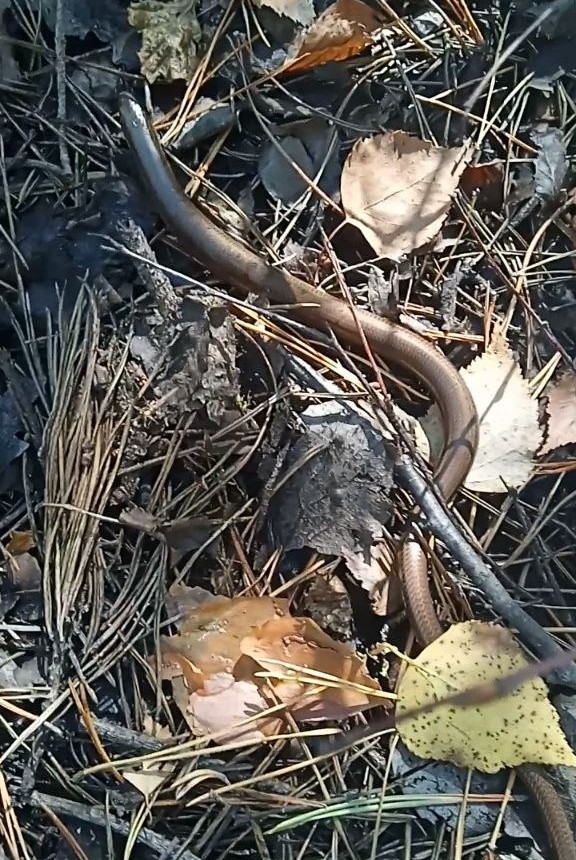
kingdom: Animalia
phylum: Chordata
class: Squamata
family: Anguidae
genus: Anguis
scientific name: Anguis colchica
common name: Slow worm
